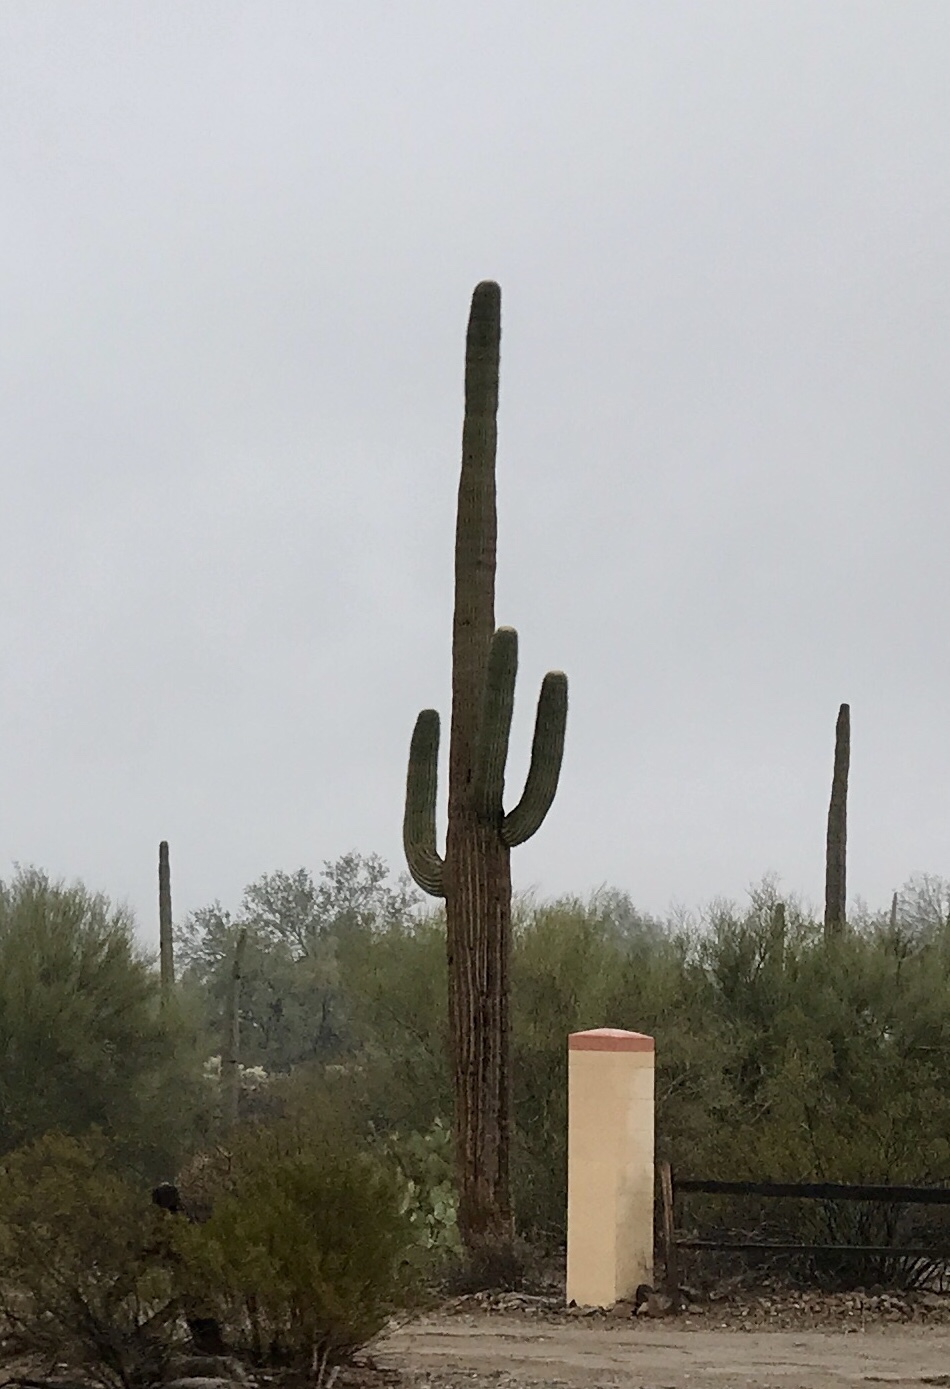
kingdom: Plantae
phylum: Tracheophyta
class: Magnoliopsida
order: Caryophyllales
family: Cactaceae
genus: Carnegiea
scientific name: Carnegiea gigantea
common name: Saguaro
